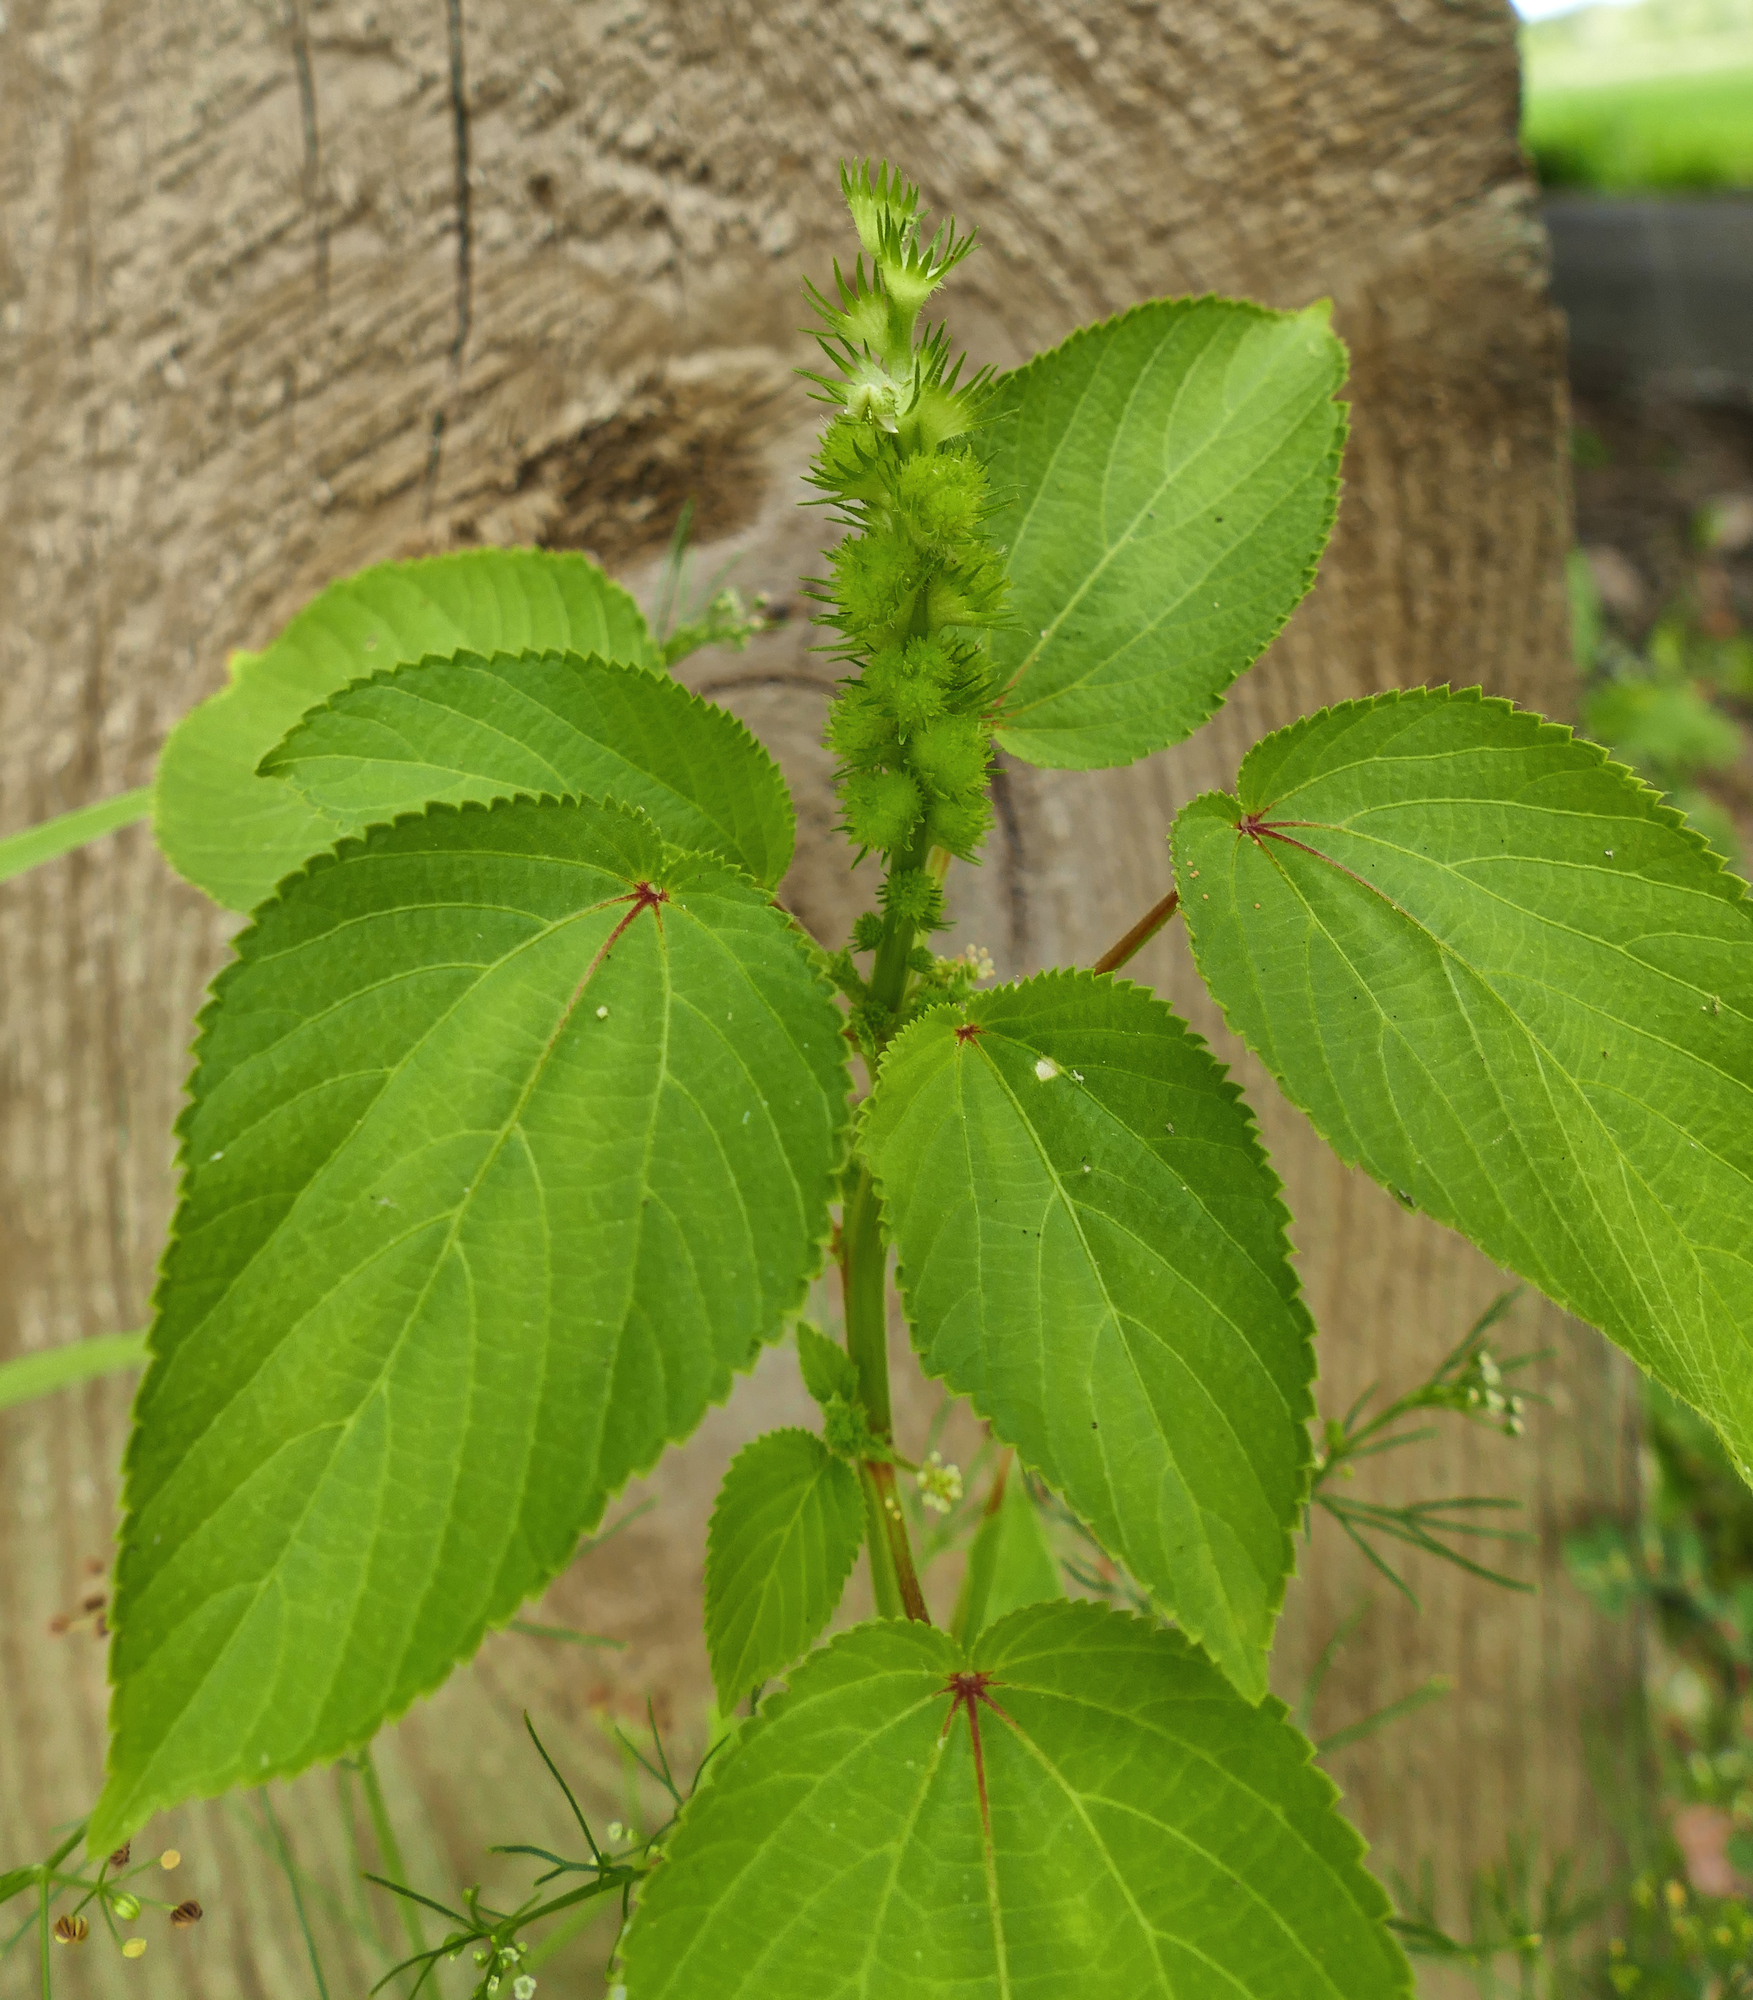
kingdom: Plantae
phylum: Tracheophyta
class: Magnoliopsida
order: Malpighiales
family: Euphorbiaceae
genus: Acalypha
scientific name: Acalypha ostryifolia
